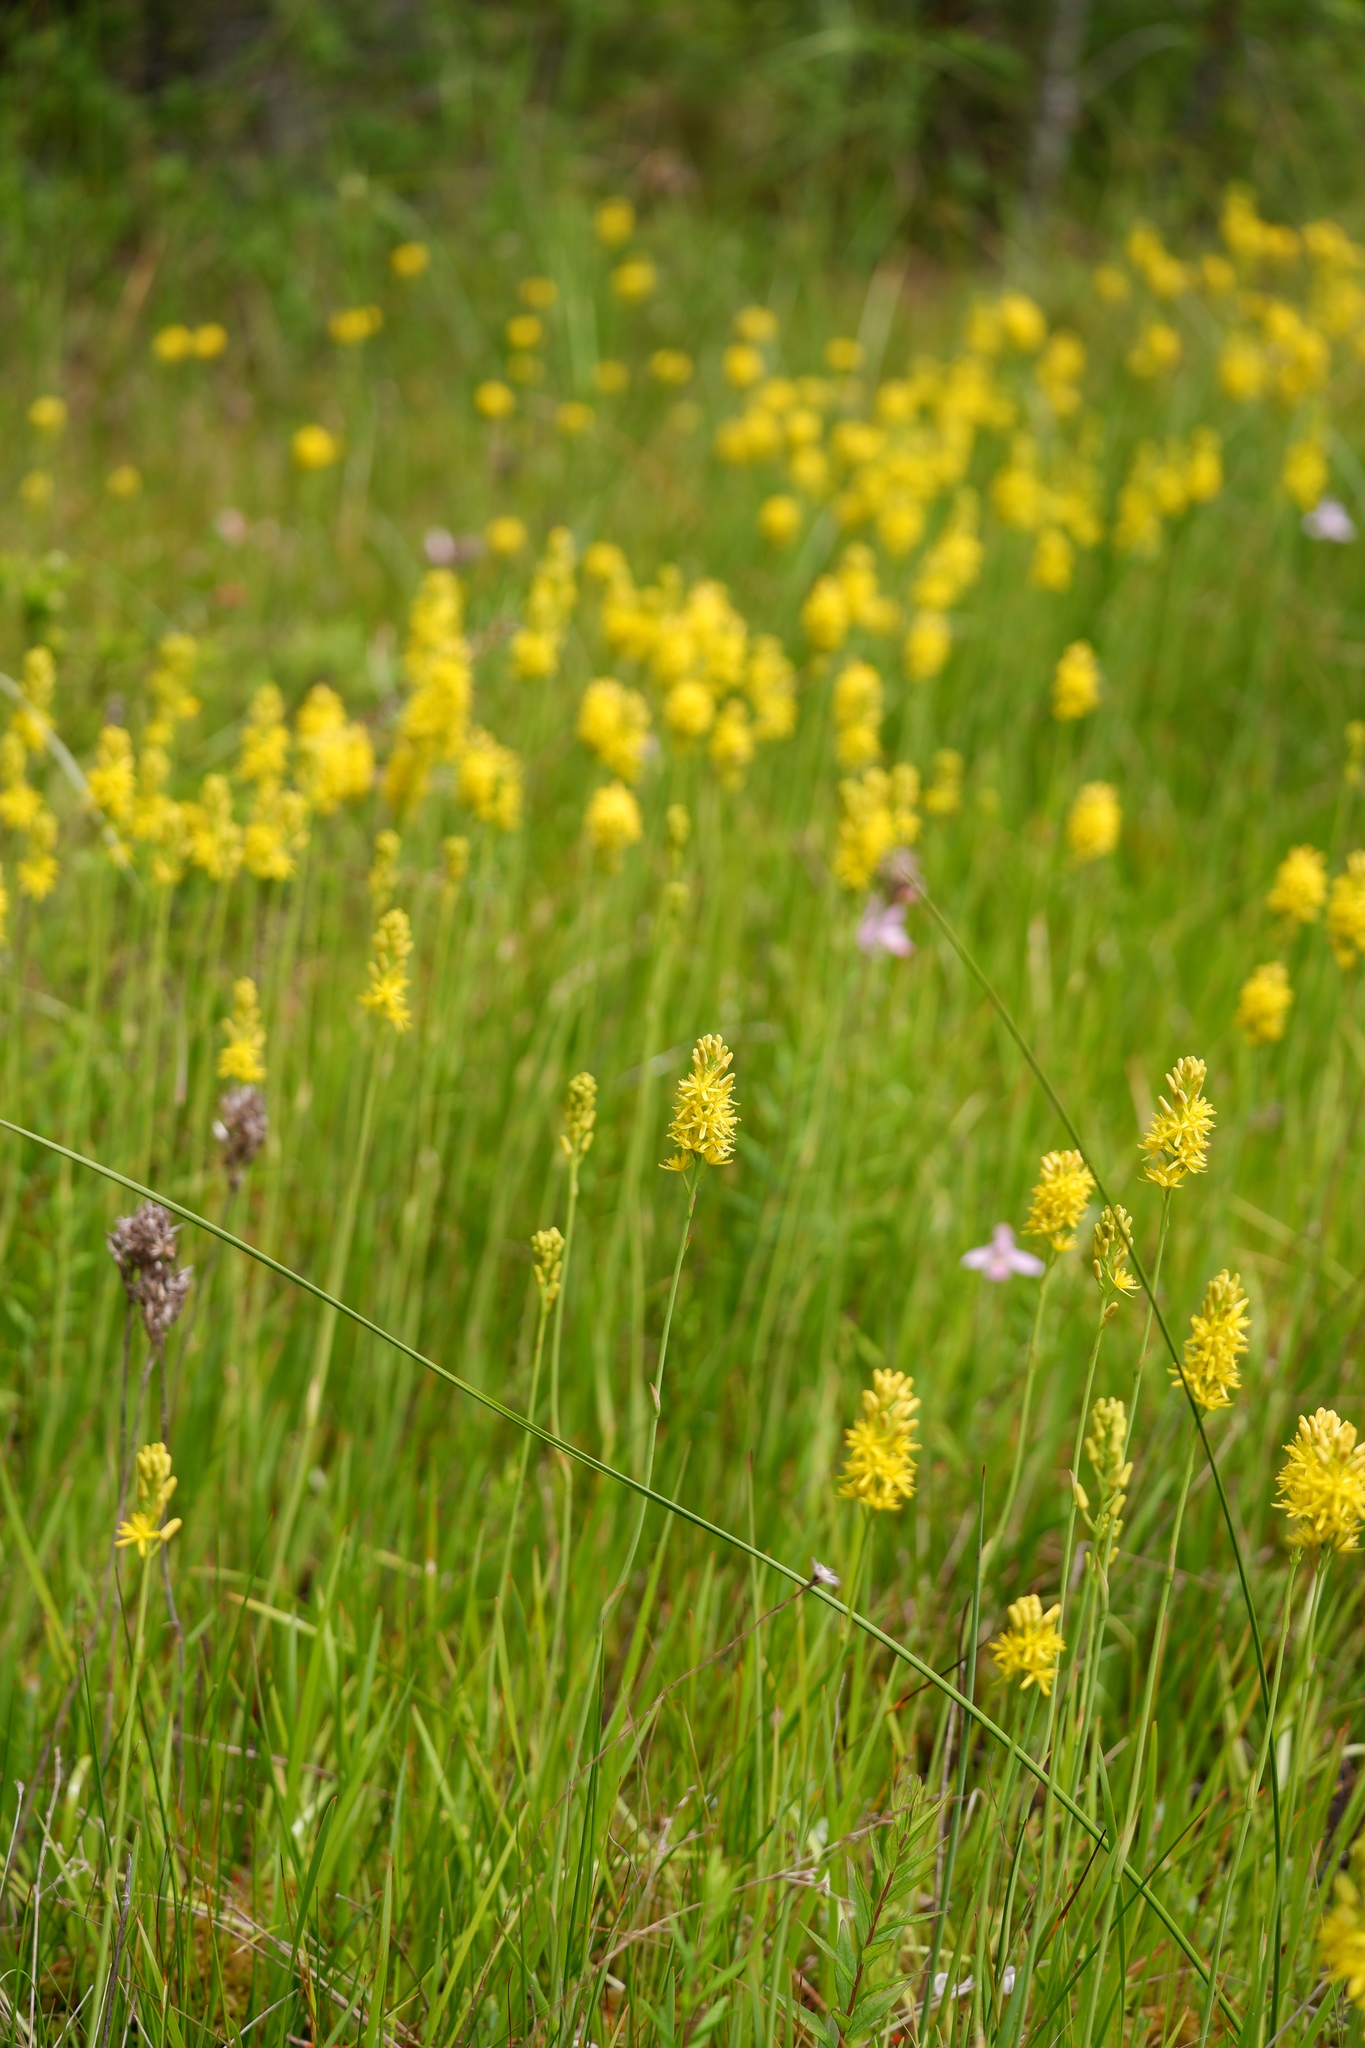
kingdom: Plantae
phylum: Tracheophyta
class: Liliopsida
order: Dioscoreales
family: Nartheciaceae
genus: Narthecium
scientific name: Narthecium americanum
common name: Bog-asphodel
